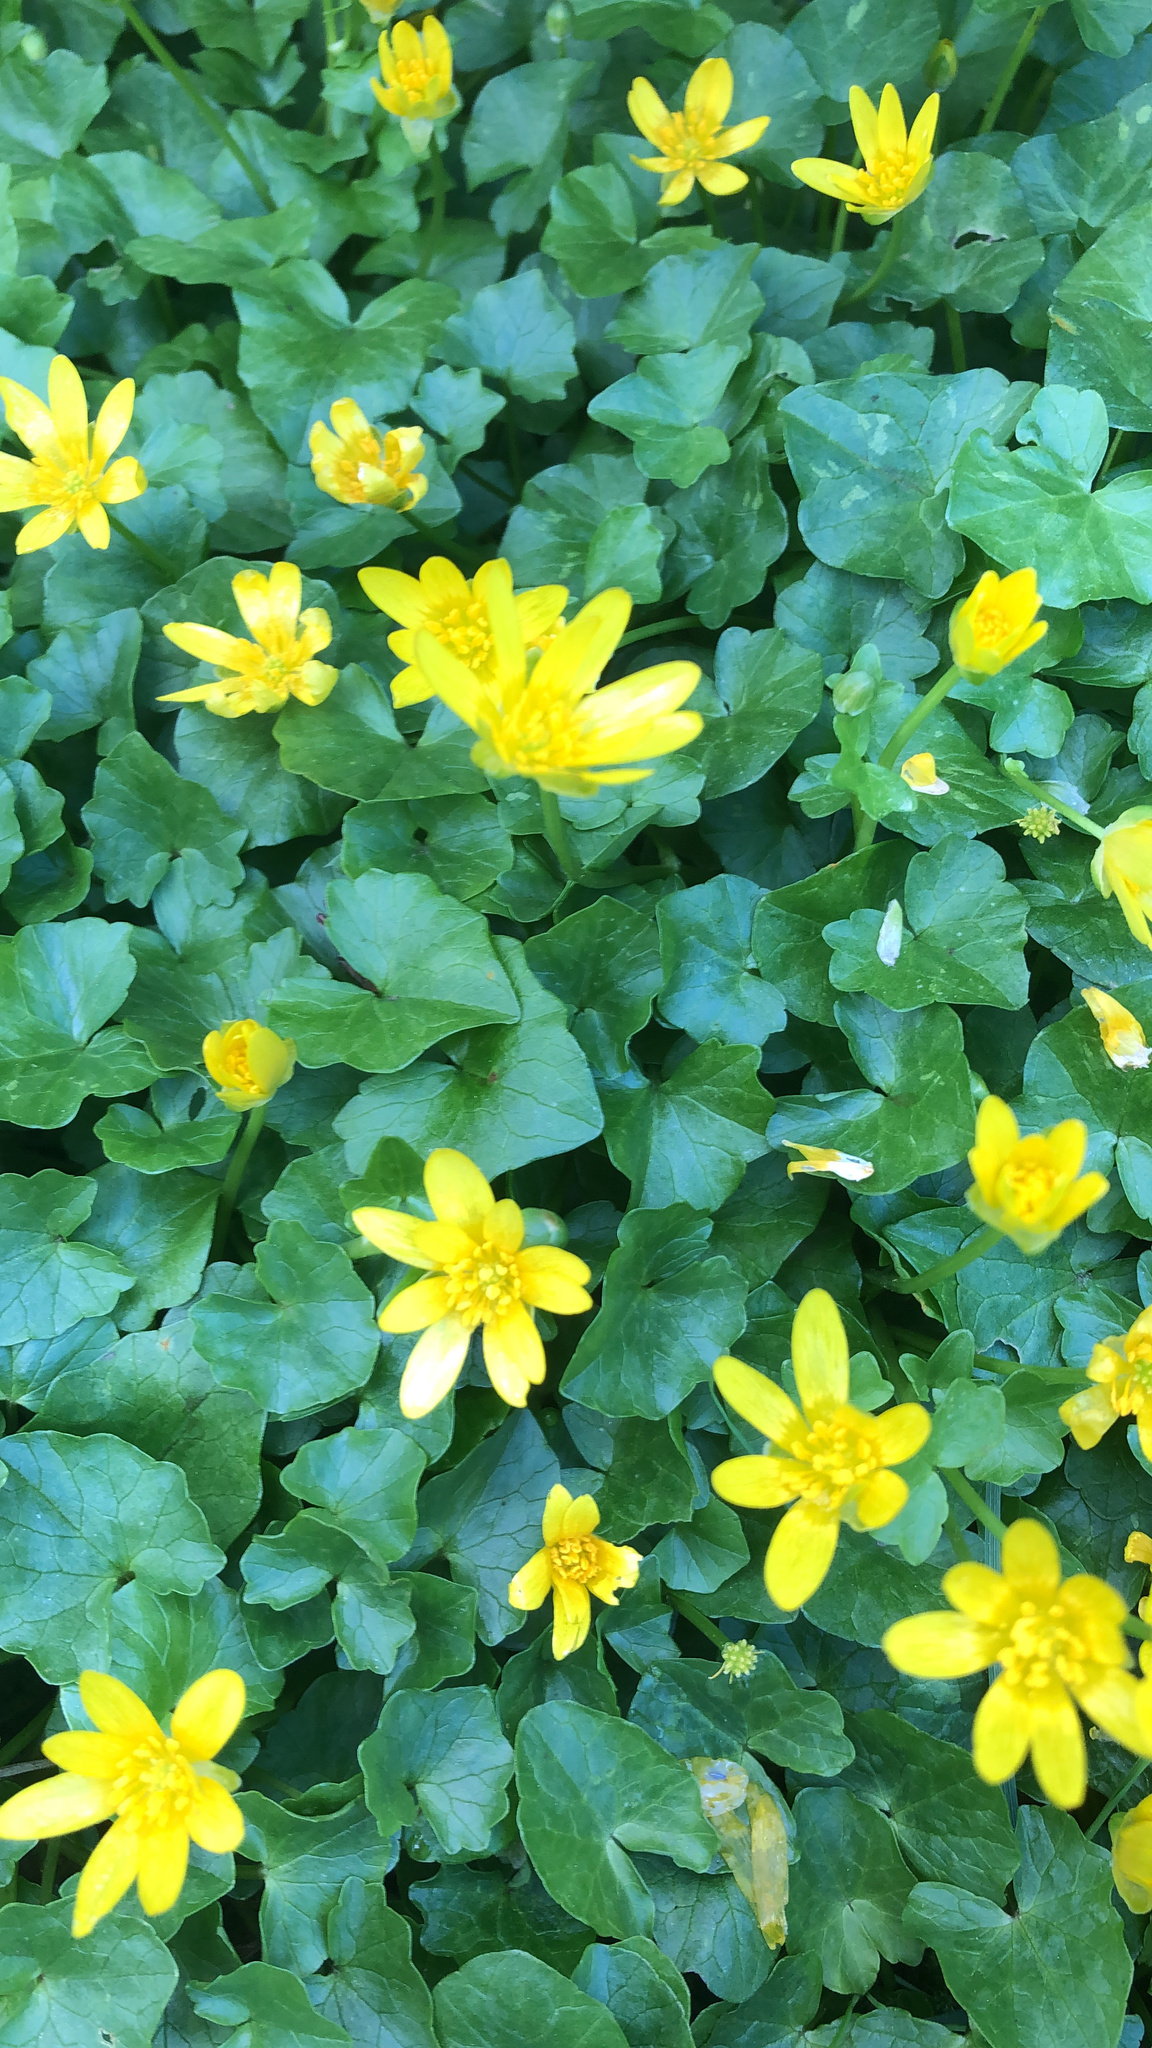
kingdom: Plantae
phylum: Tracheophyta
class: Magnoliopsida
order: Ranunculales
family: Ranunculaceae
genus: Ficaria
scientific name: Ficaria verna
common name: Lesser celandine
